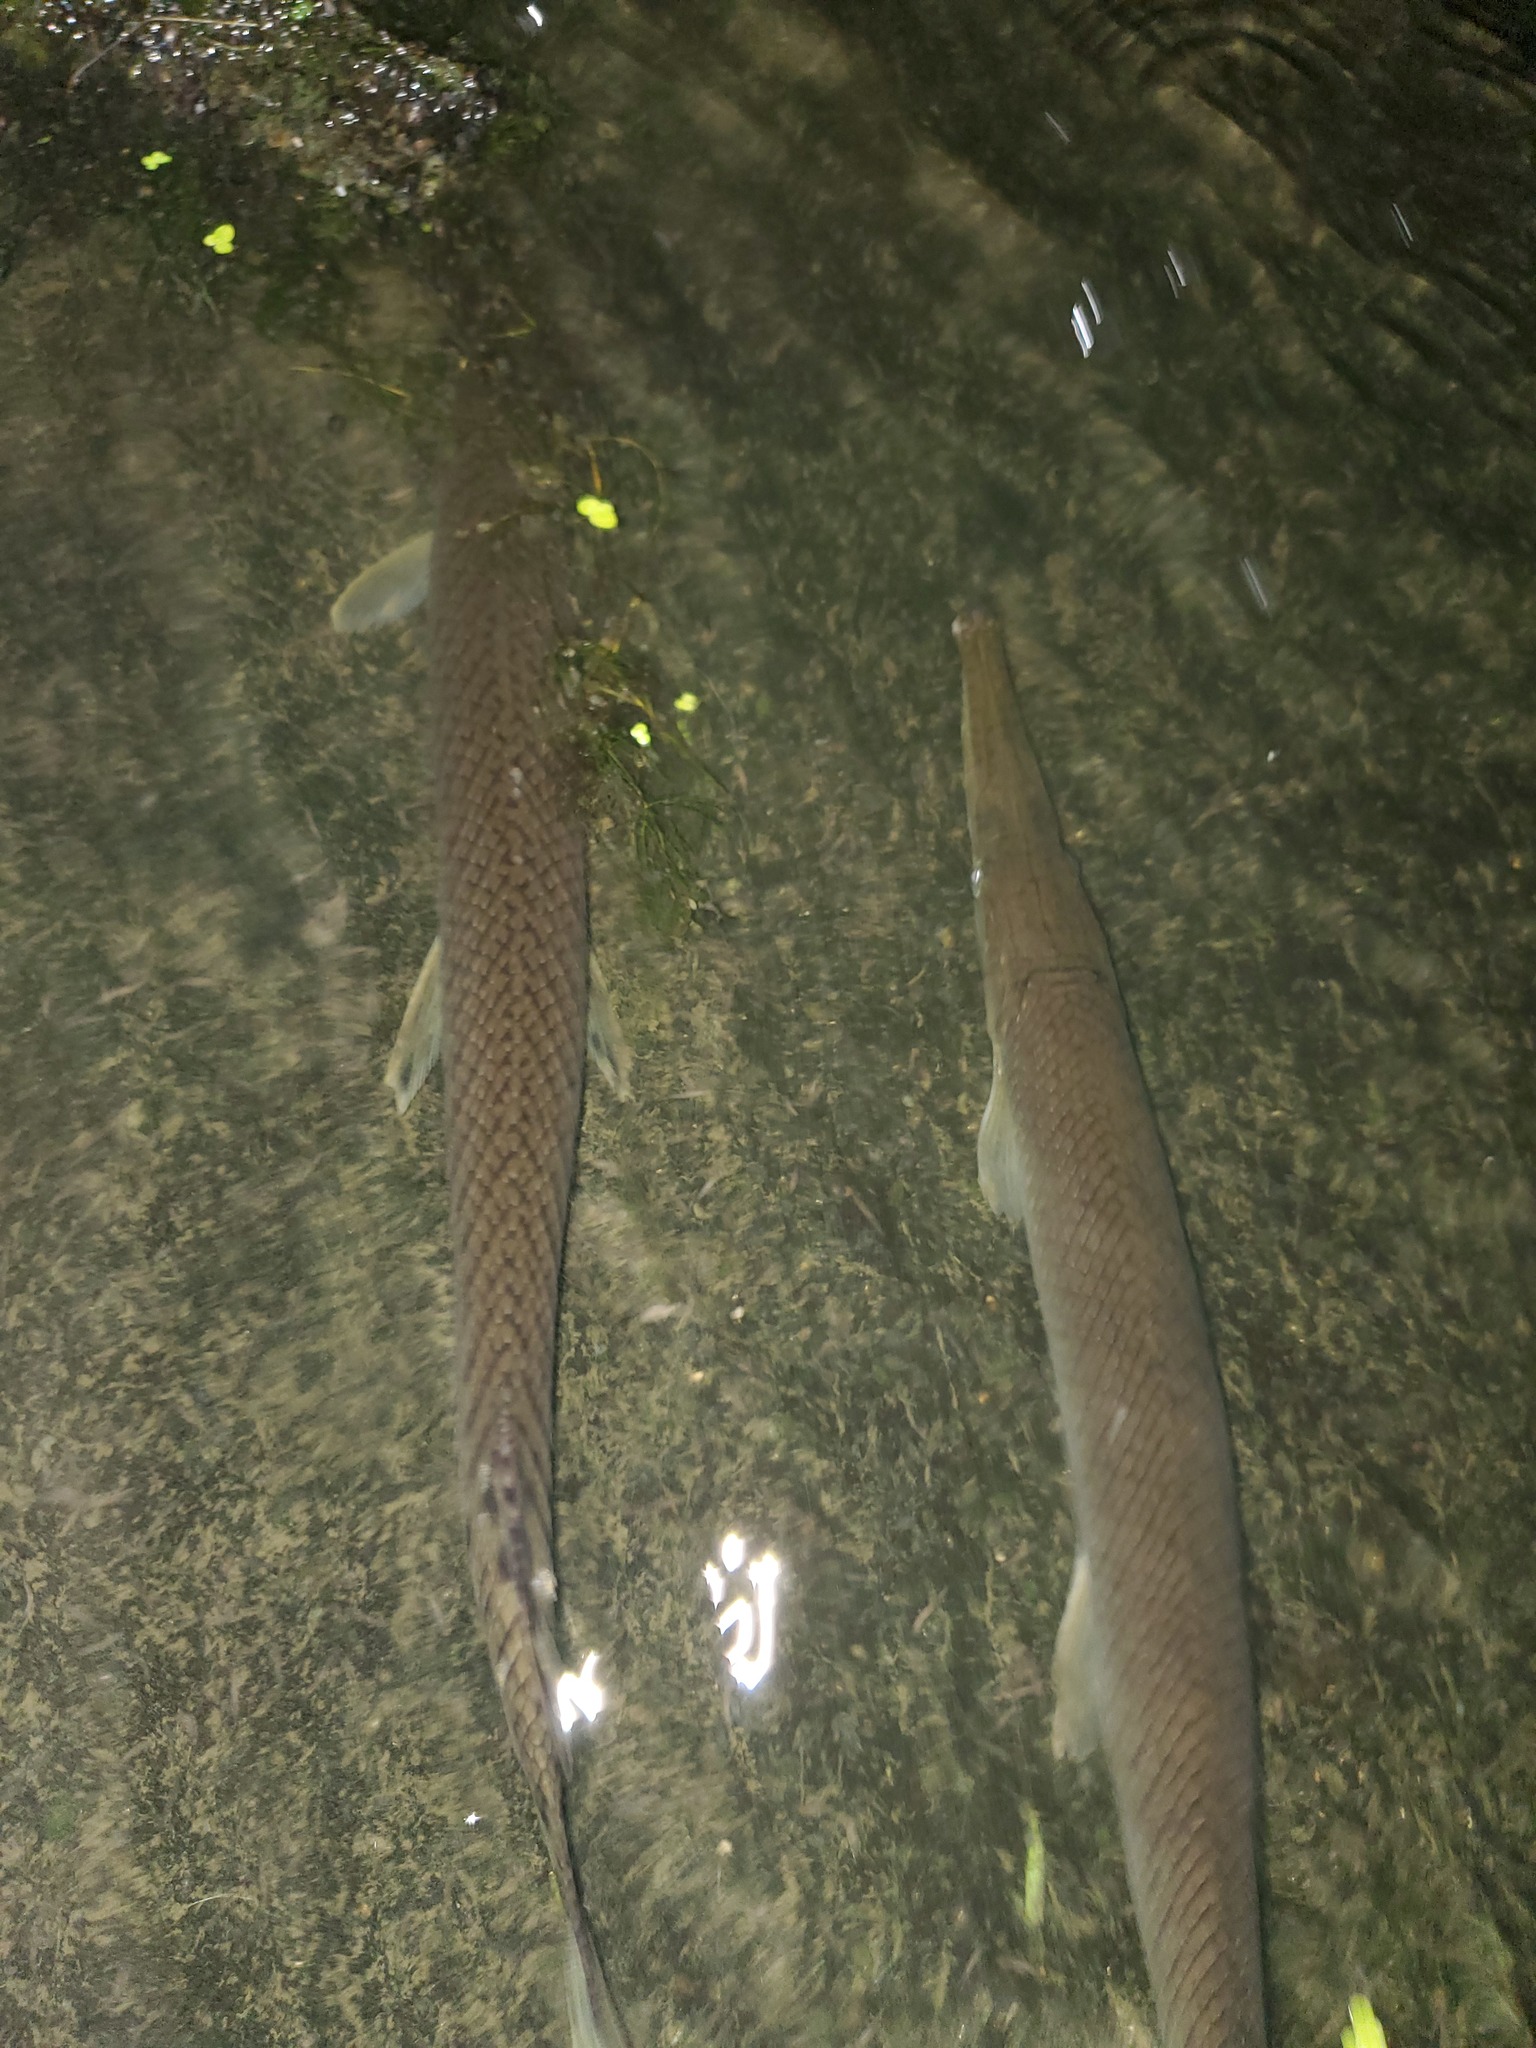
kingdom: Animalia
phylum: Chordata
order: Lepisosteiformes
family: Lepisosteidae
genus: Lepisosteus
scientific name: Lepisosteus platostomus
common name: Shortnose gar
